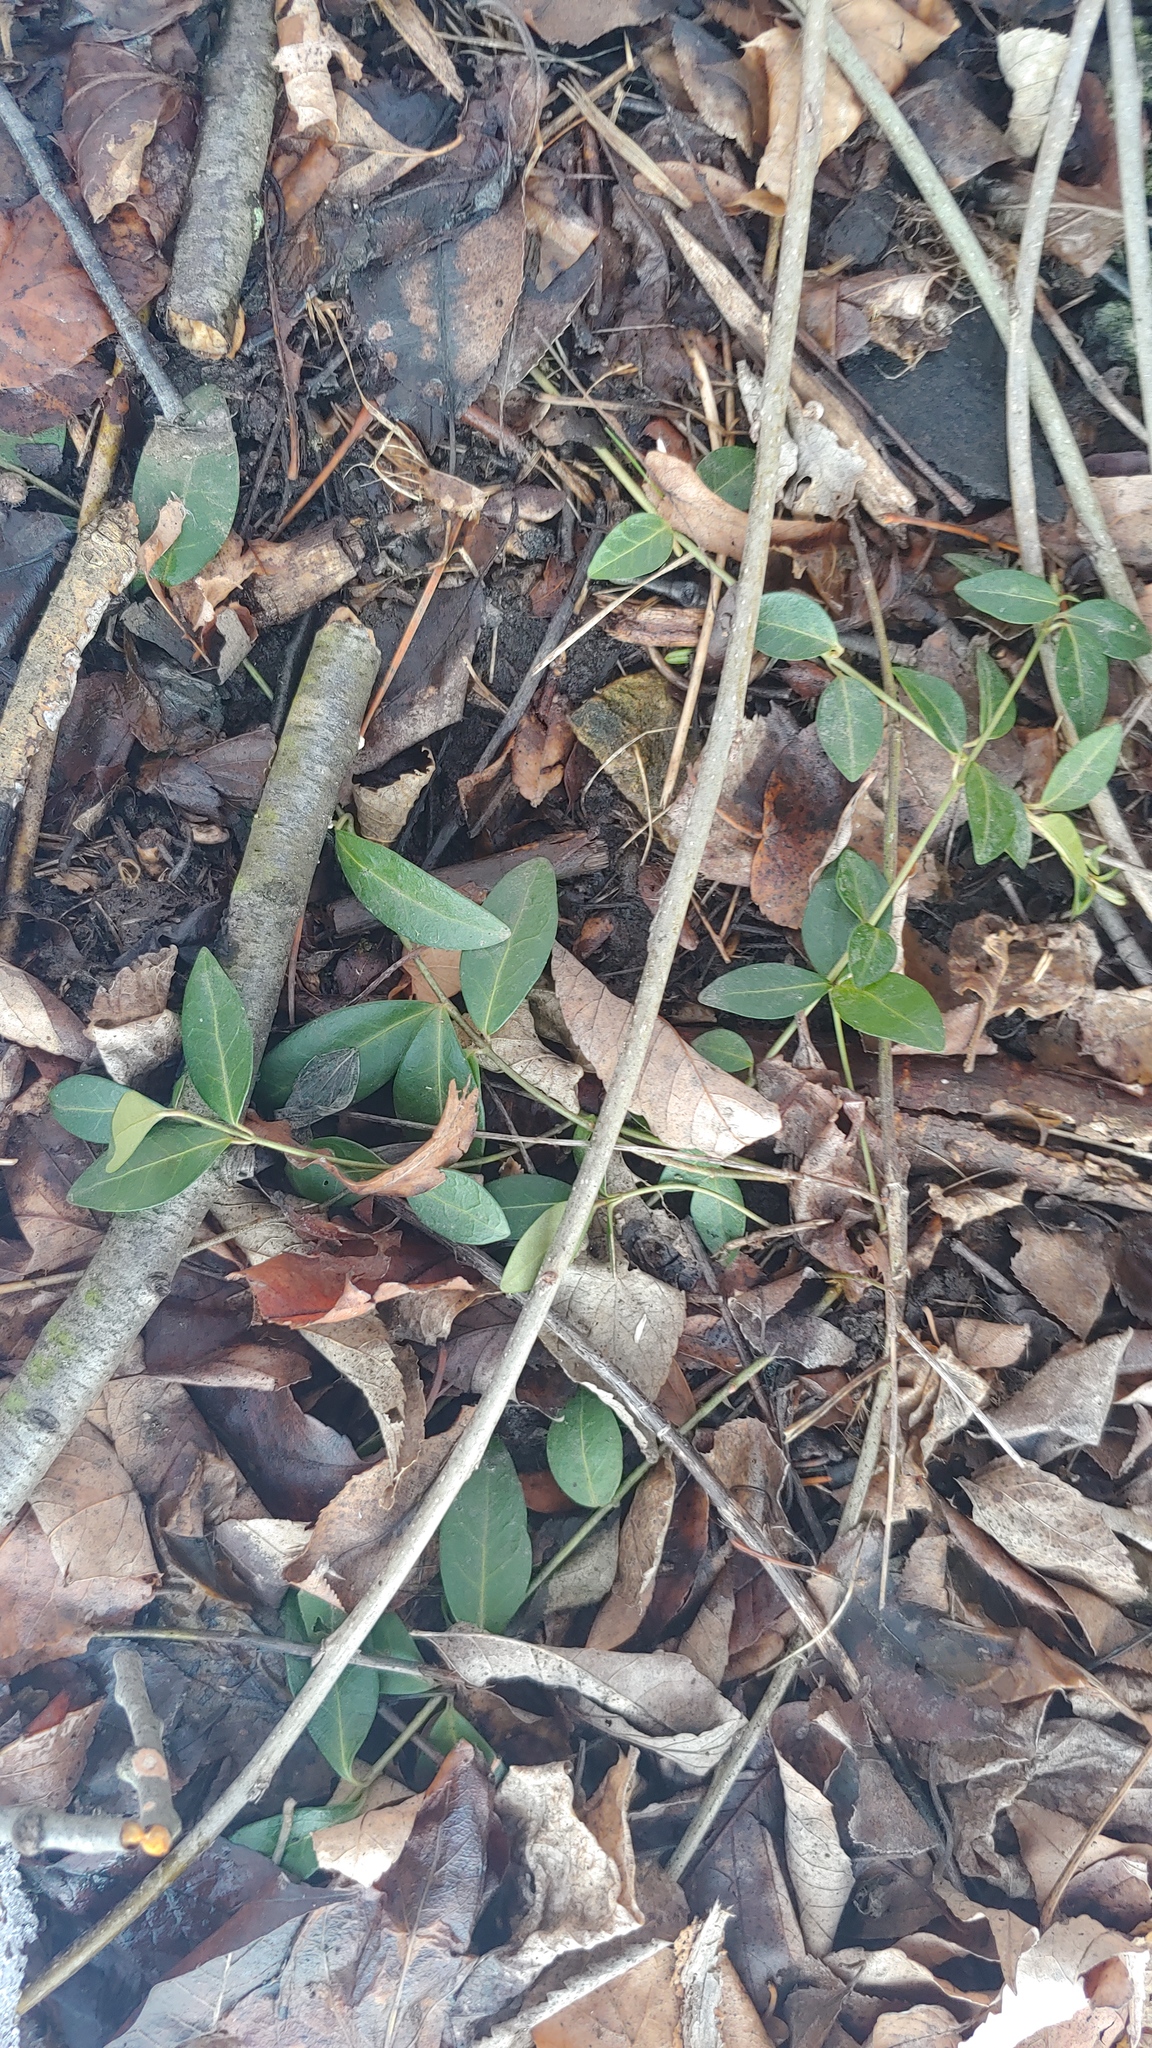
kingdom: Plantae
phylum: Tracheophyta
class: Magnoliopsida
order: Gentianales
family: Apocynaceae
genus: Vinca
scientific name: Vinca minor
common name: Lesser periwinkle
